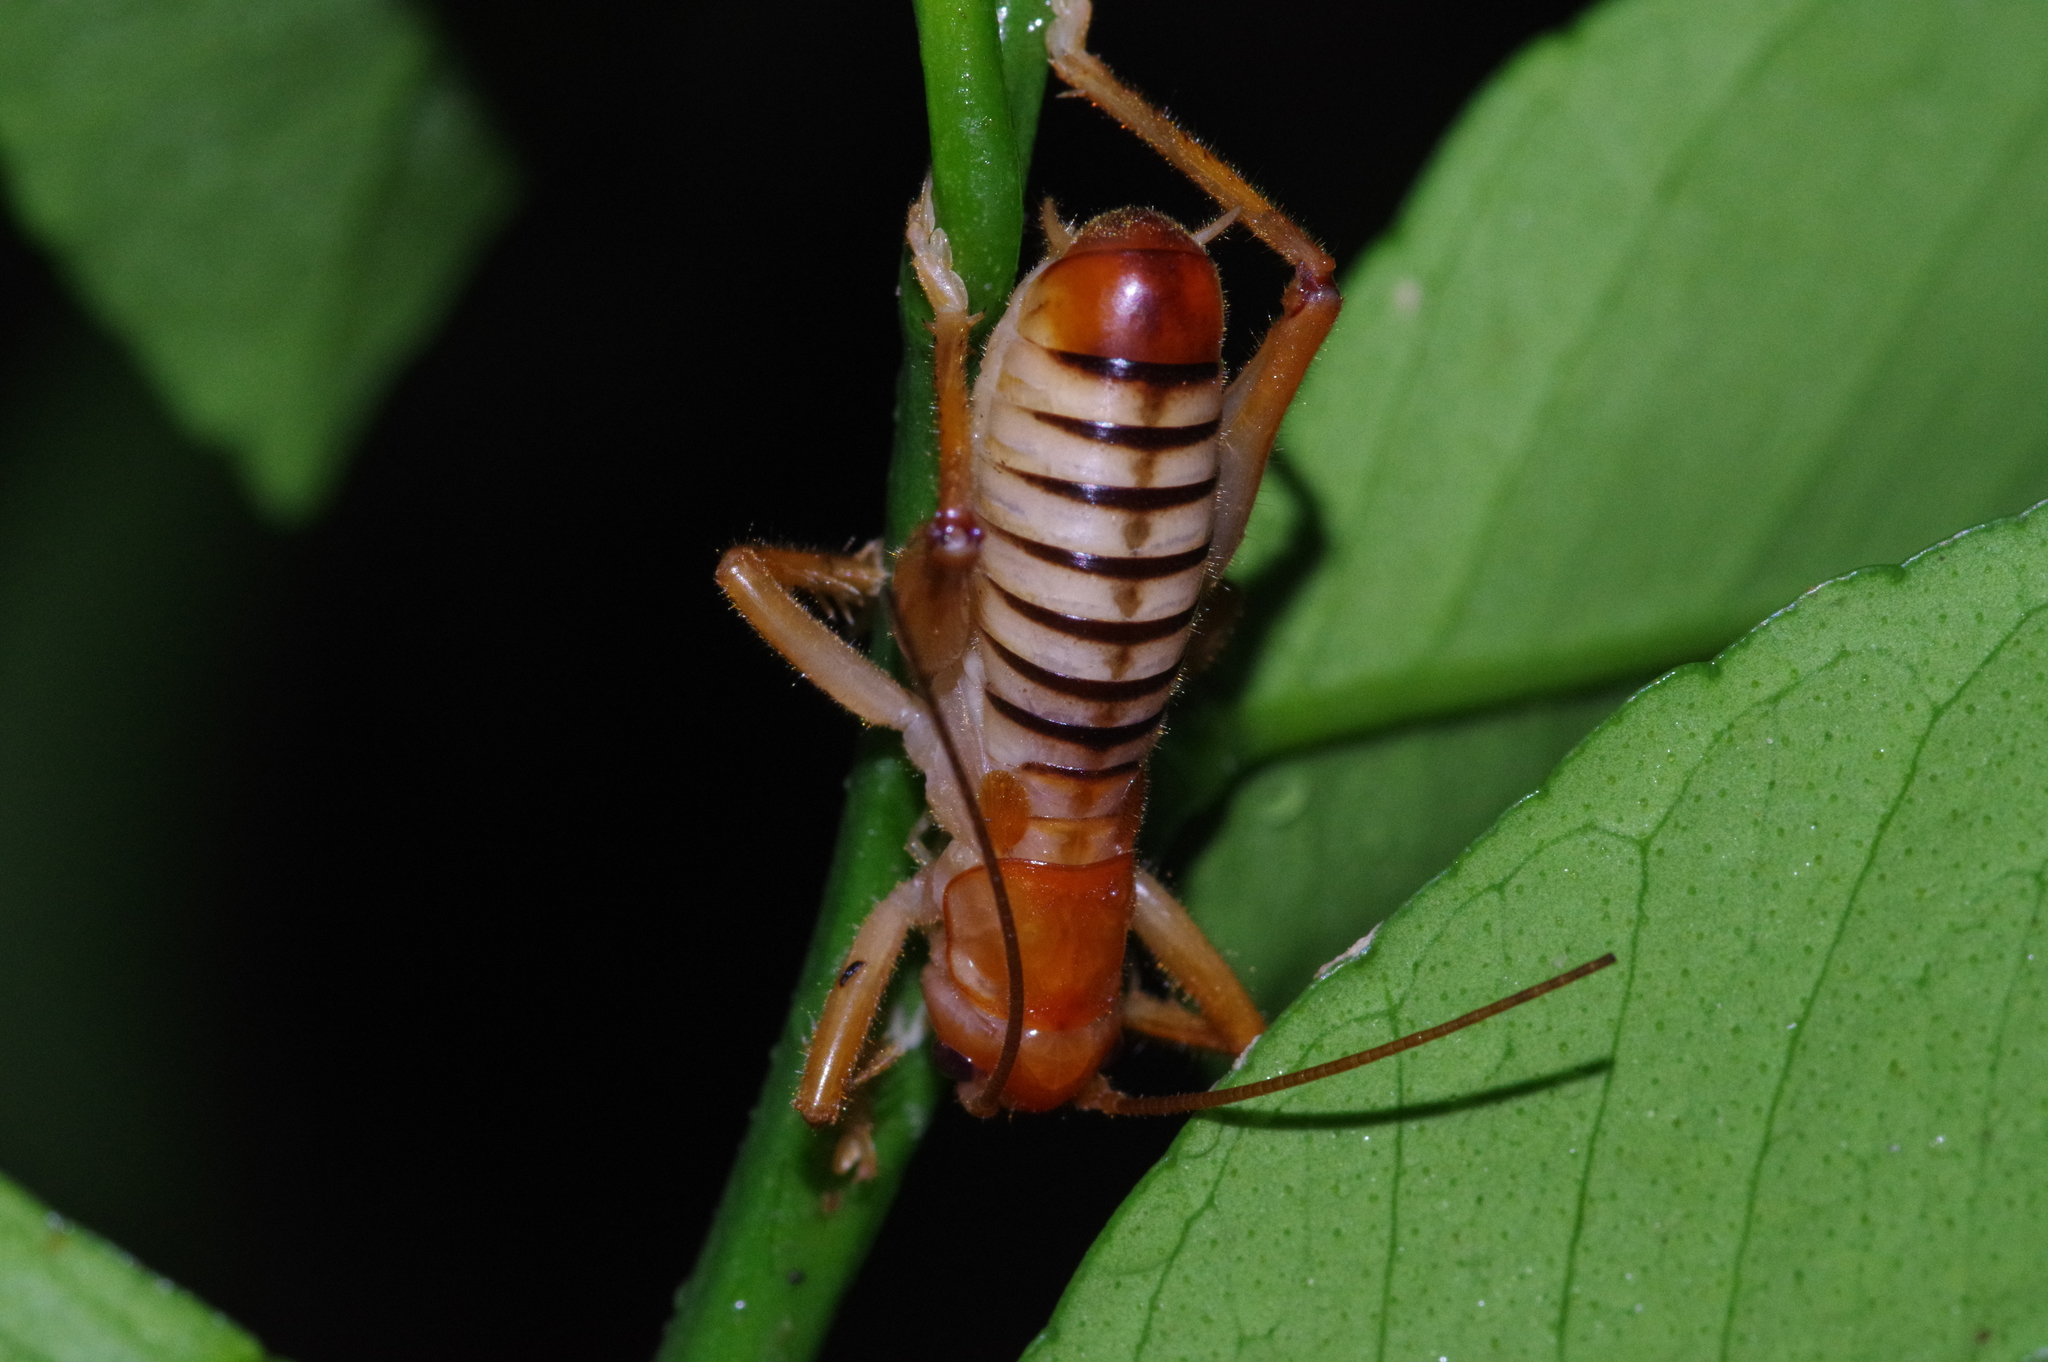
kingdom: Animalia
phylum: Arthropoda
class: Insecta
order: Orthoptera
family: Gryllacrididae
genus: Metriogryllacris
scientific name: Metriogryllacris magna
